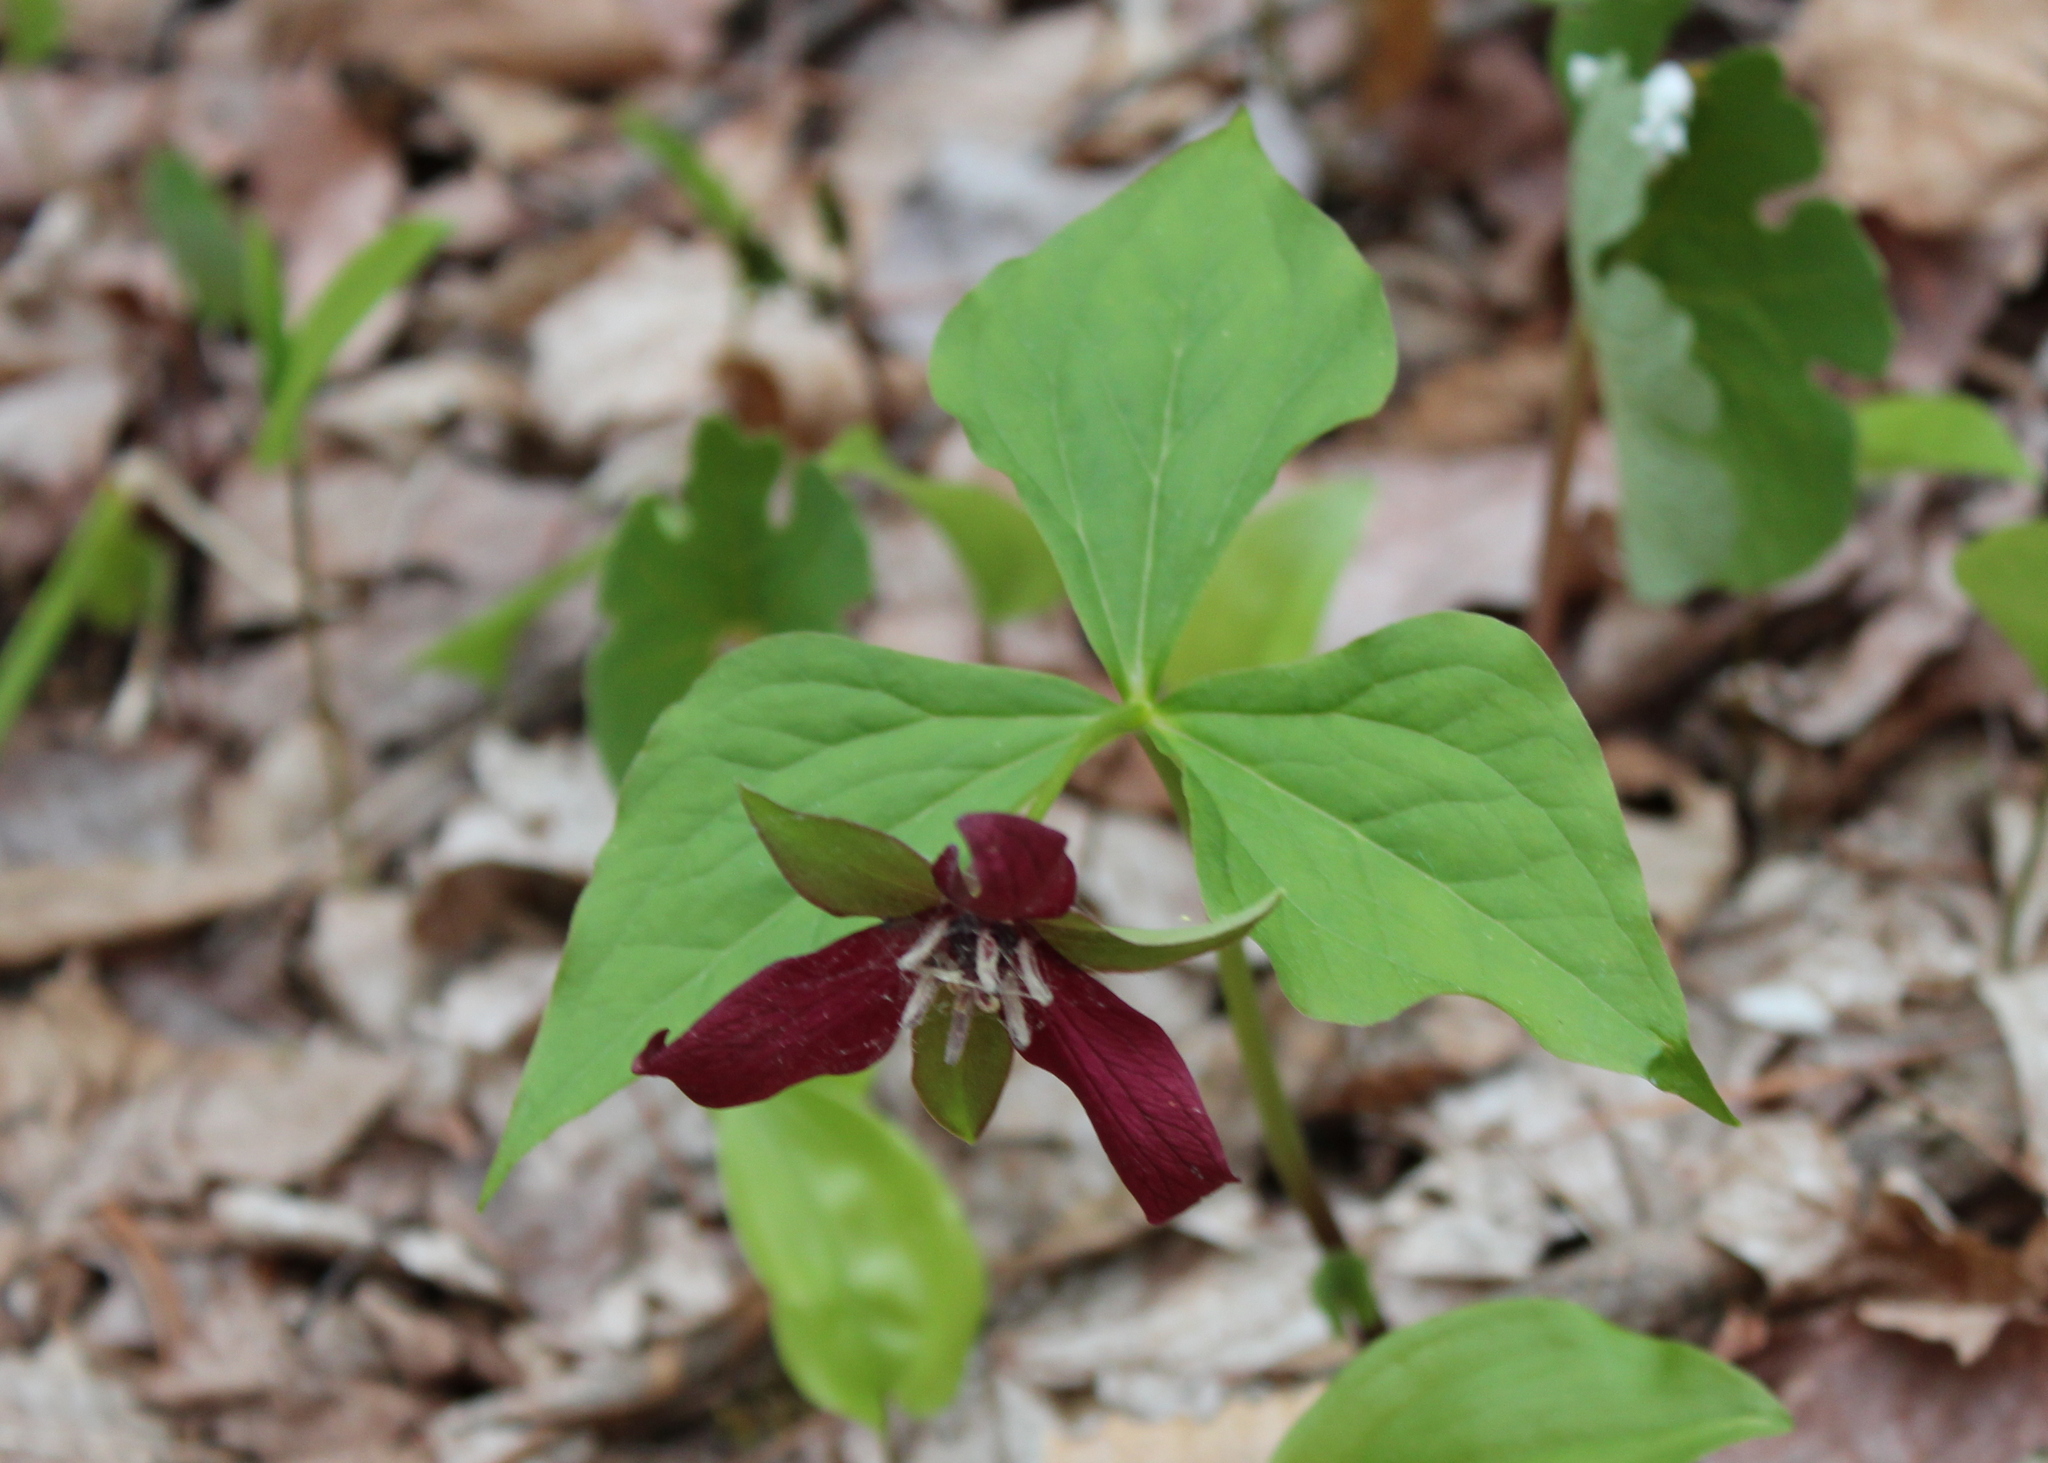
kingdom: Plantae
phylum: Tracheophyta
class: Liliopsida
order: Liliales
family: Melanthiaceae
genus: Trillium
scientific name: Trillium erectum
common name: Purple trillium
